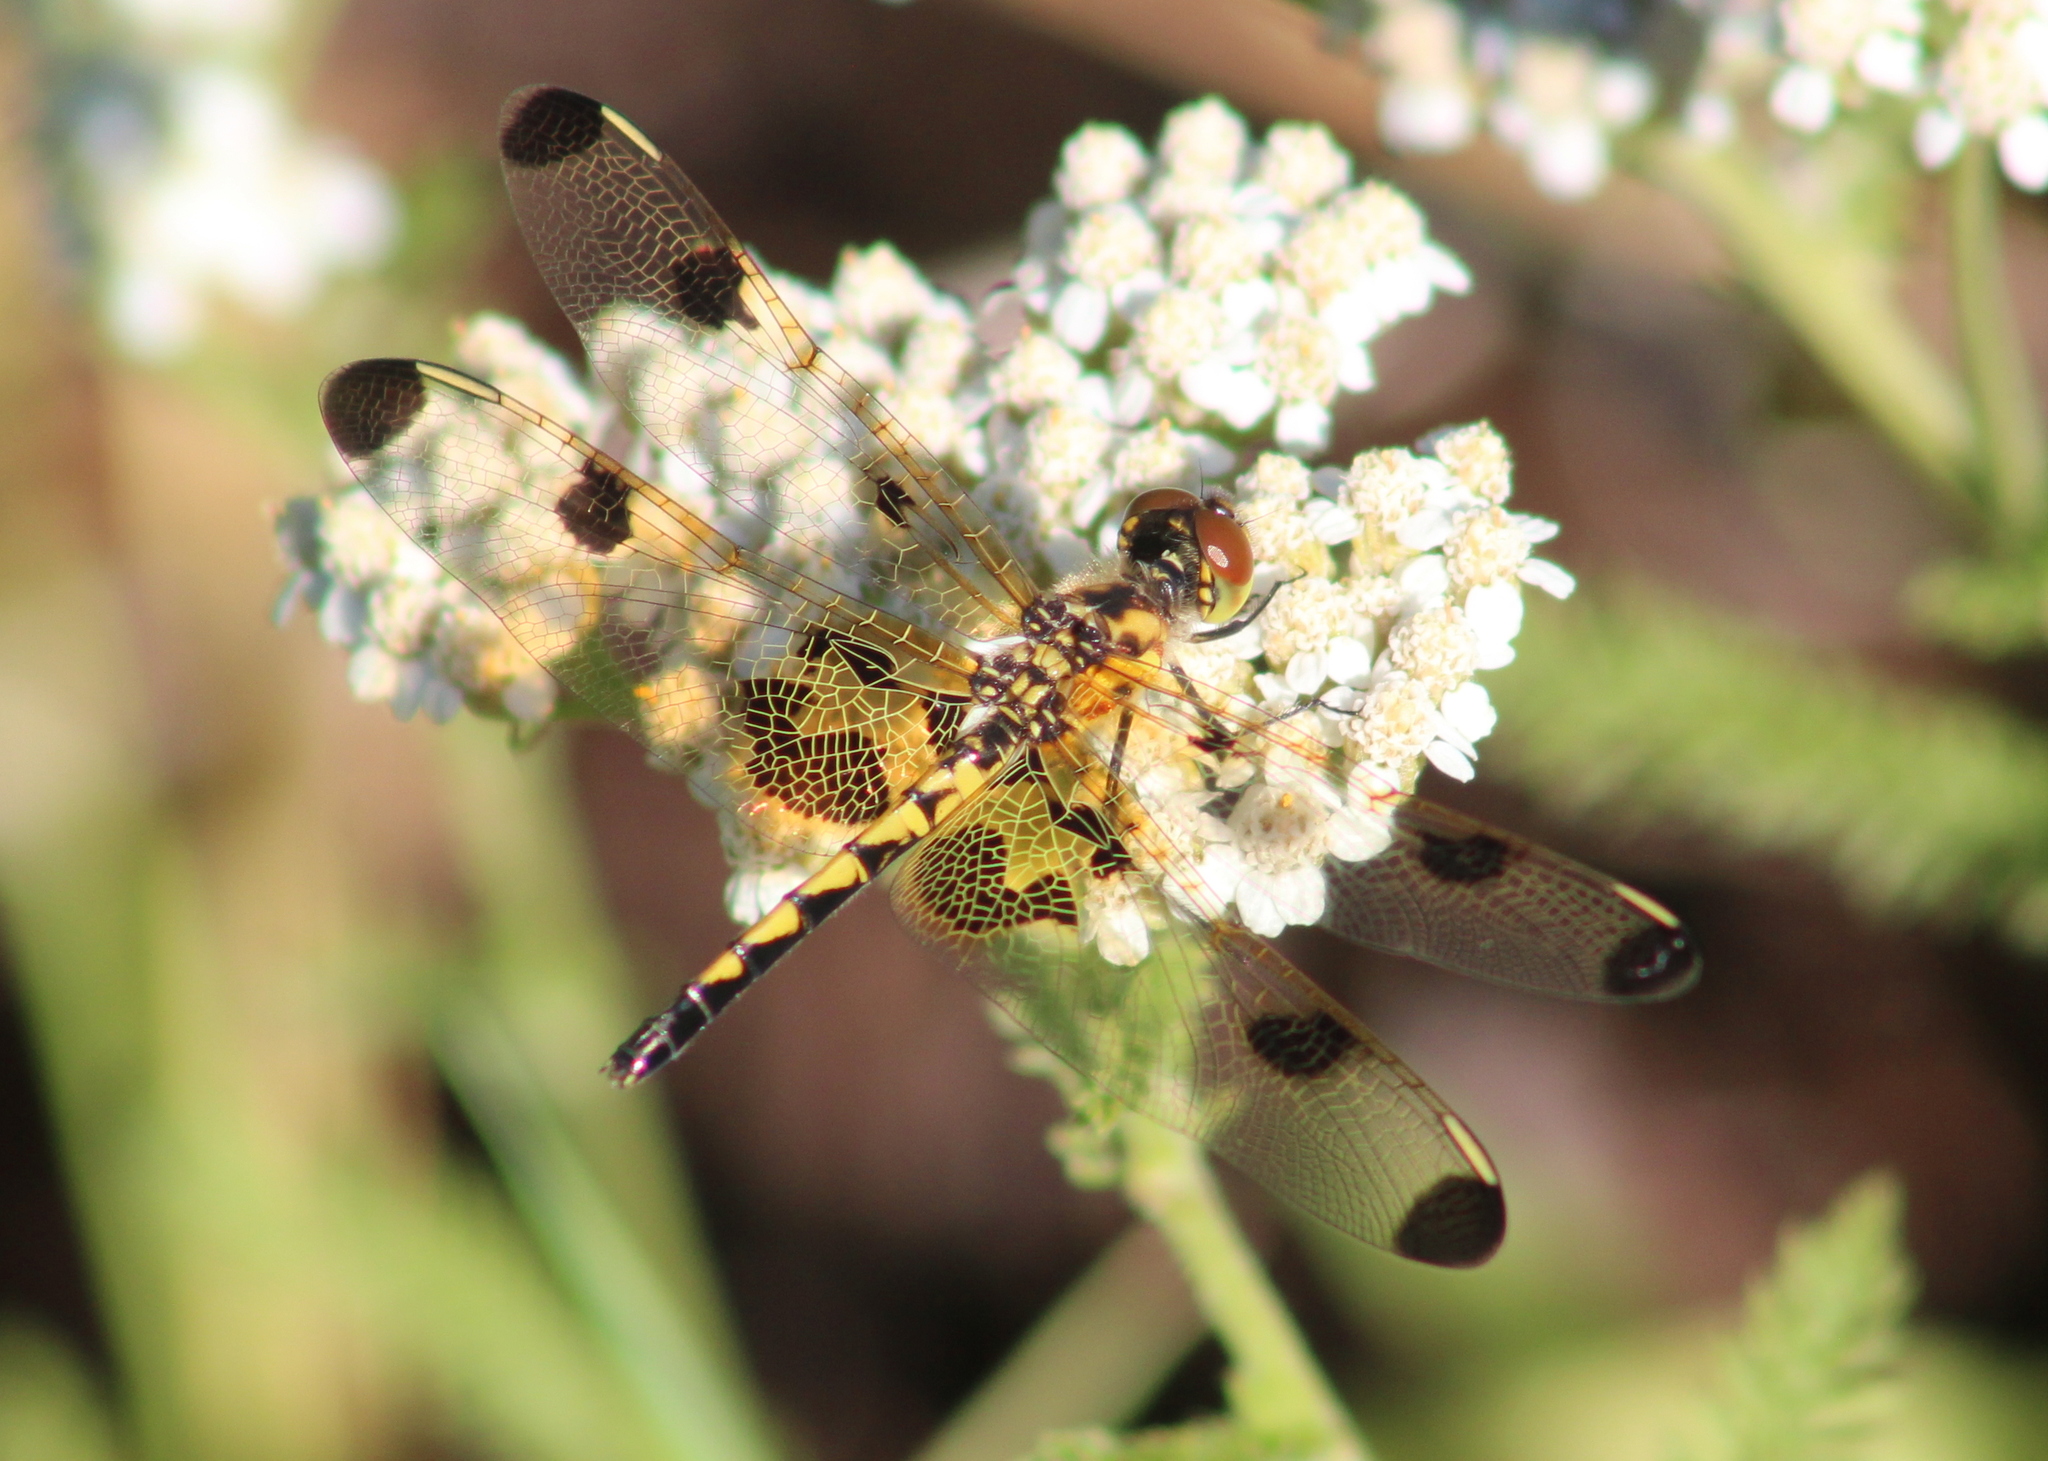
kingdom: Animalia
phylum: Arthropoda
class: Insecta
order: Odonata
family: Libellulidae
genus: Celithemis
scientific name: Celithemis elisa
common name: Calico pennant
